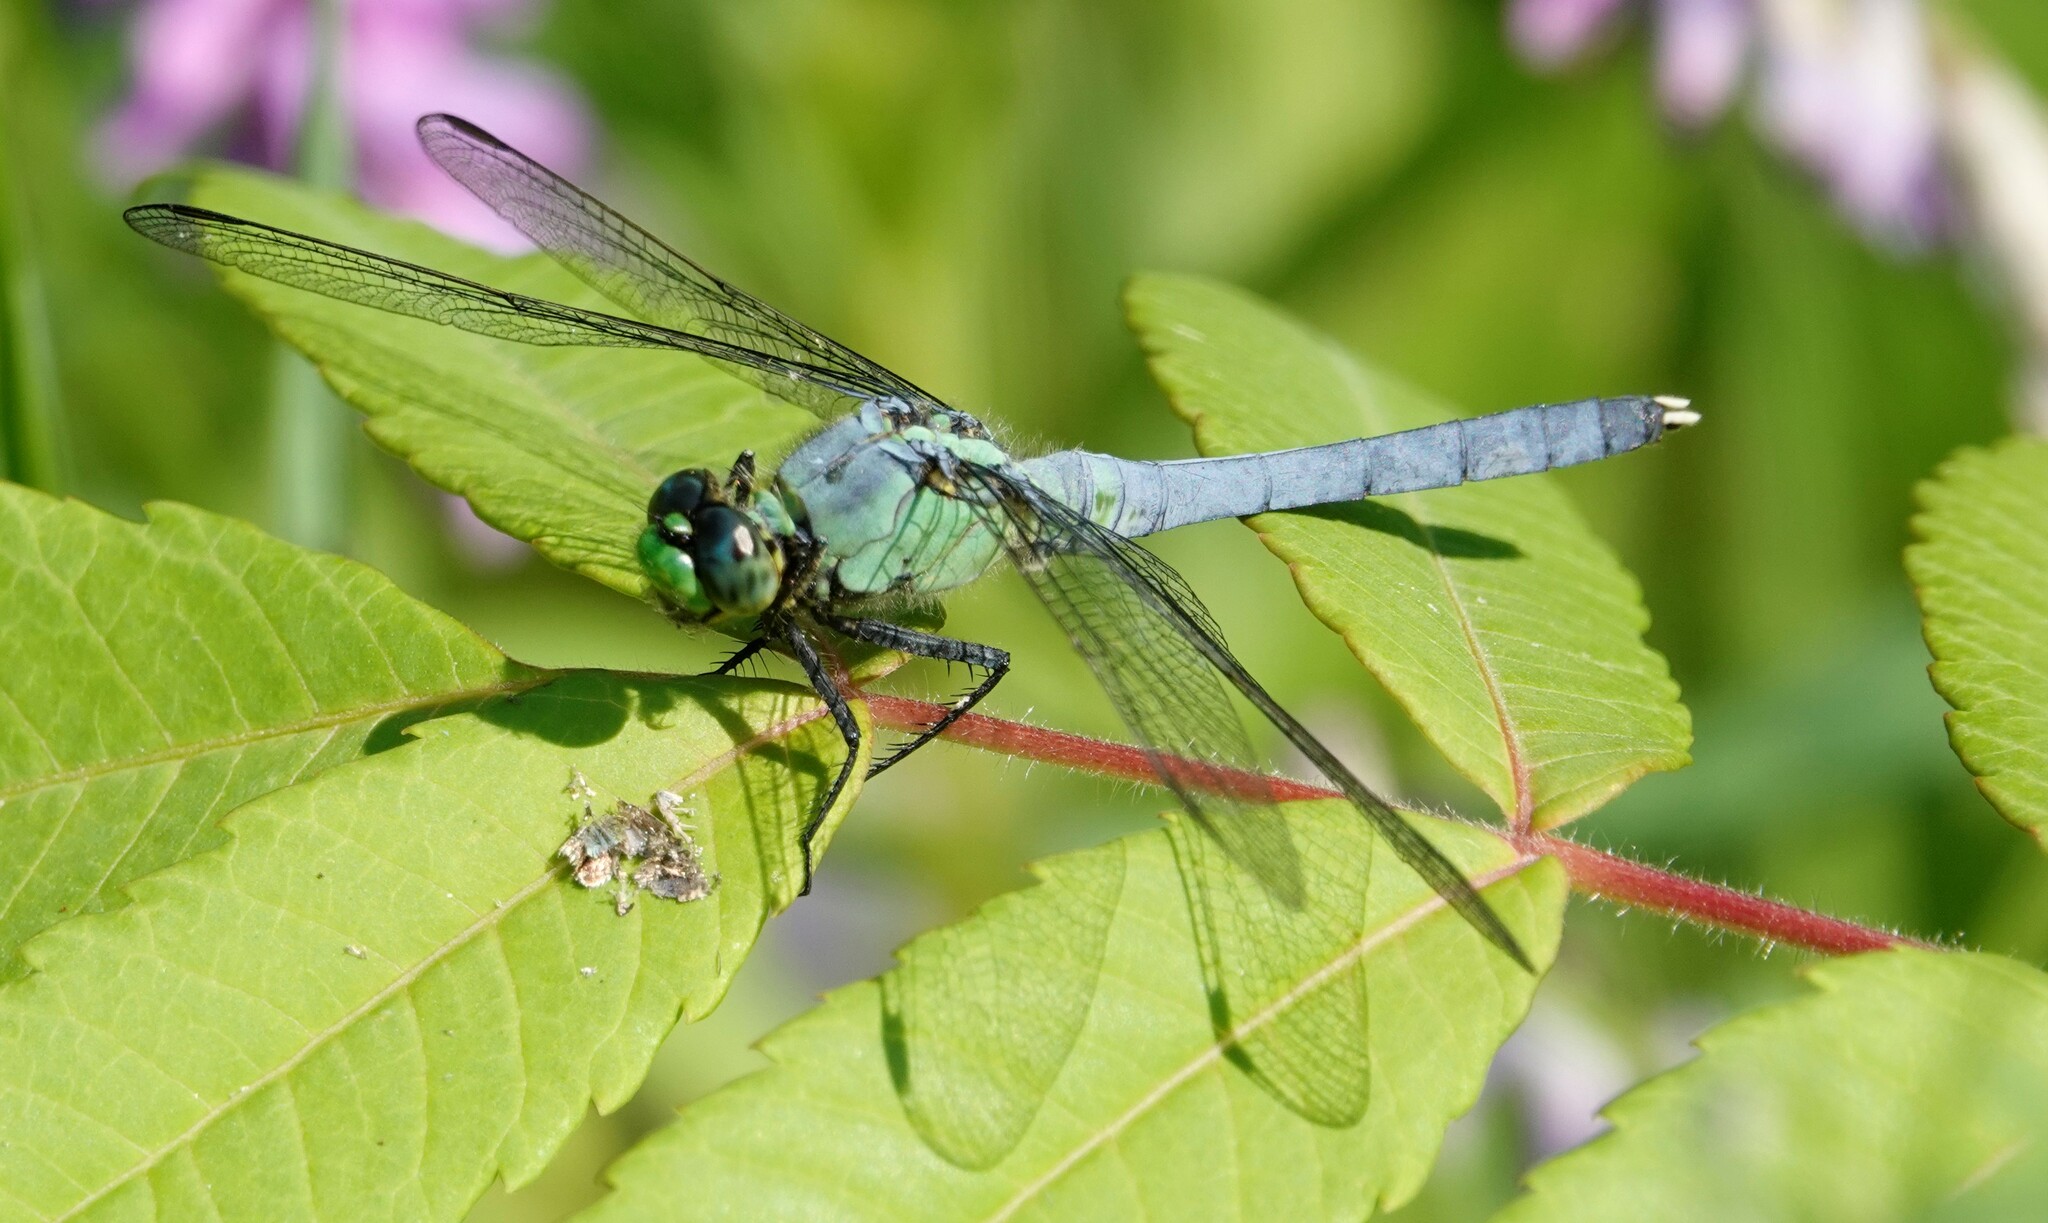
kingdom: Animalia
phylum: Arthropoda
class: Insecta
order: Odonata
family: Libellulidae
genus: Erythemis
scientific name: Erythemis simplicicollis
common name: Eastern pondhawk
